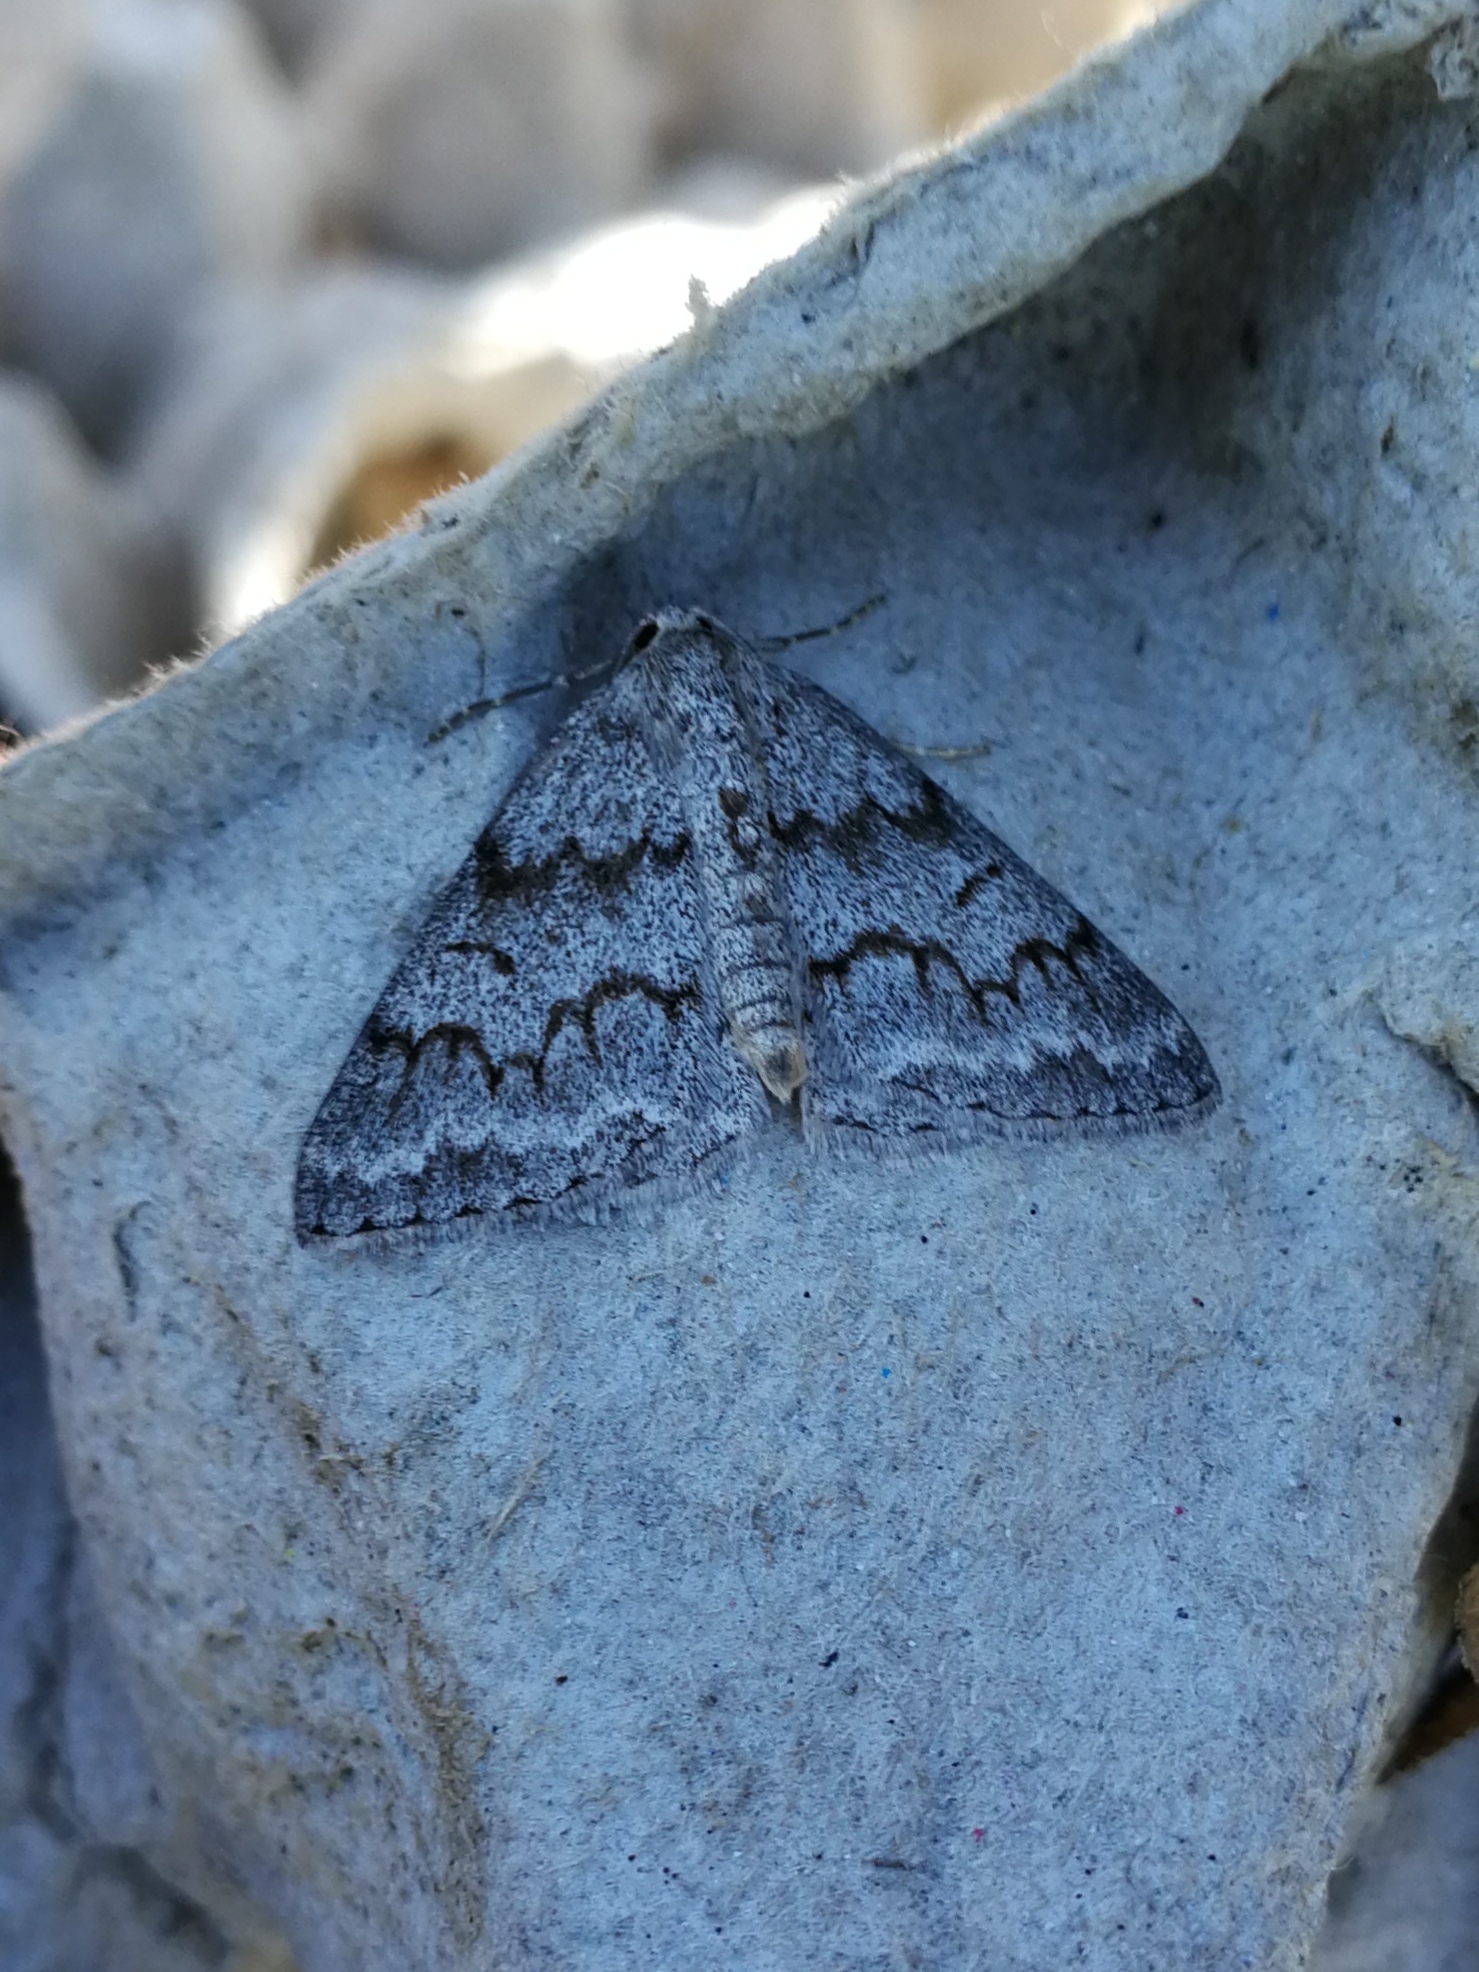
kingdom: Animalia
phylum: Arthropoda
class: Insecta
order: Lepidoptera
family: Geometridae
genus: Pseudoterpna
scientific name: Pseudoterpna coronillaria
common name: Jersey emerald
